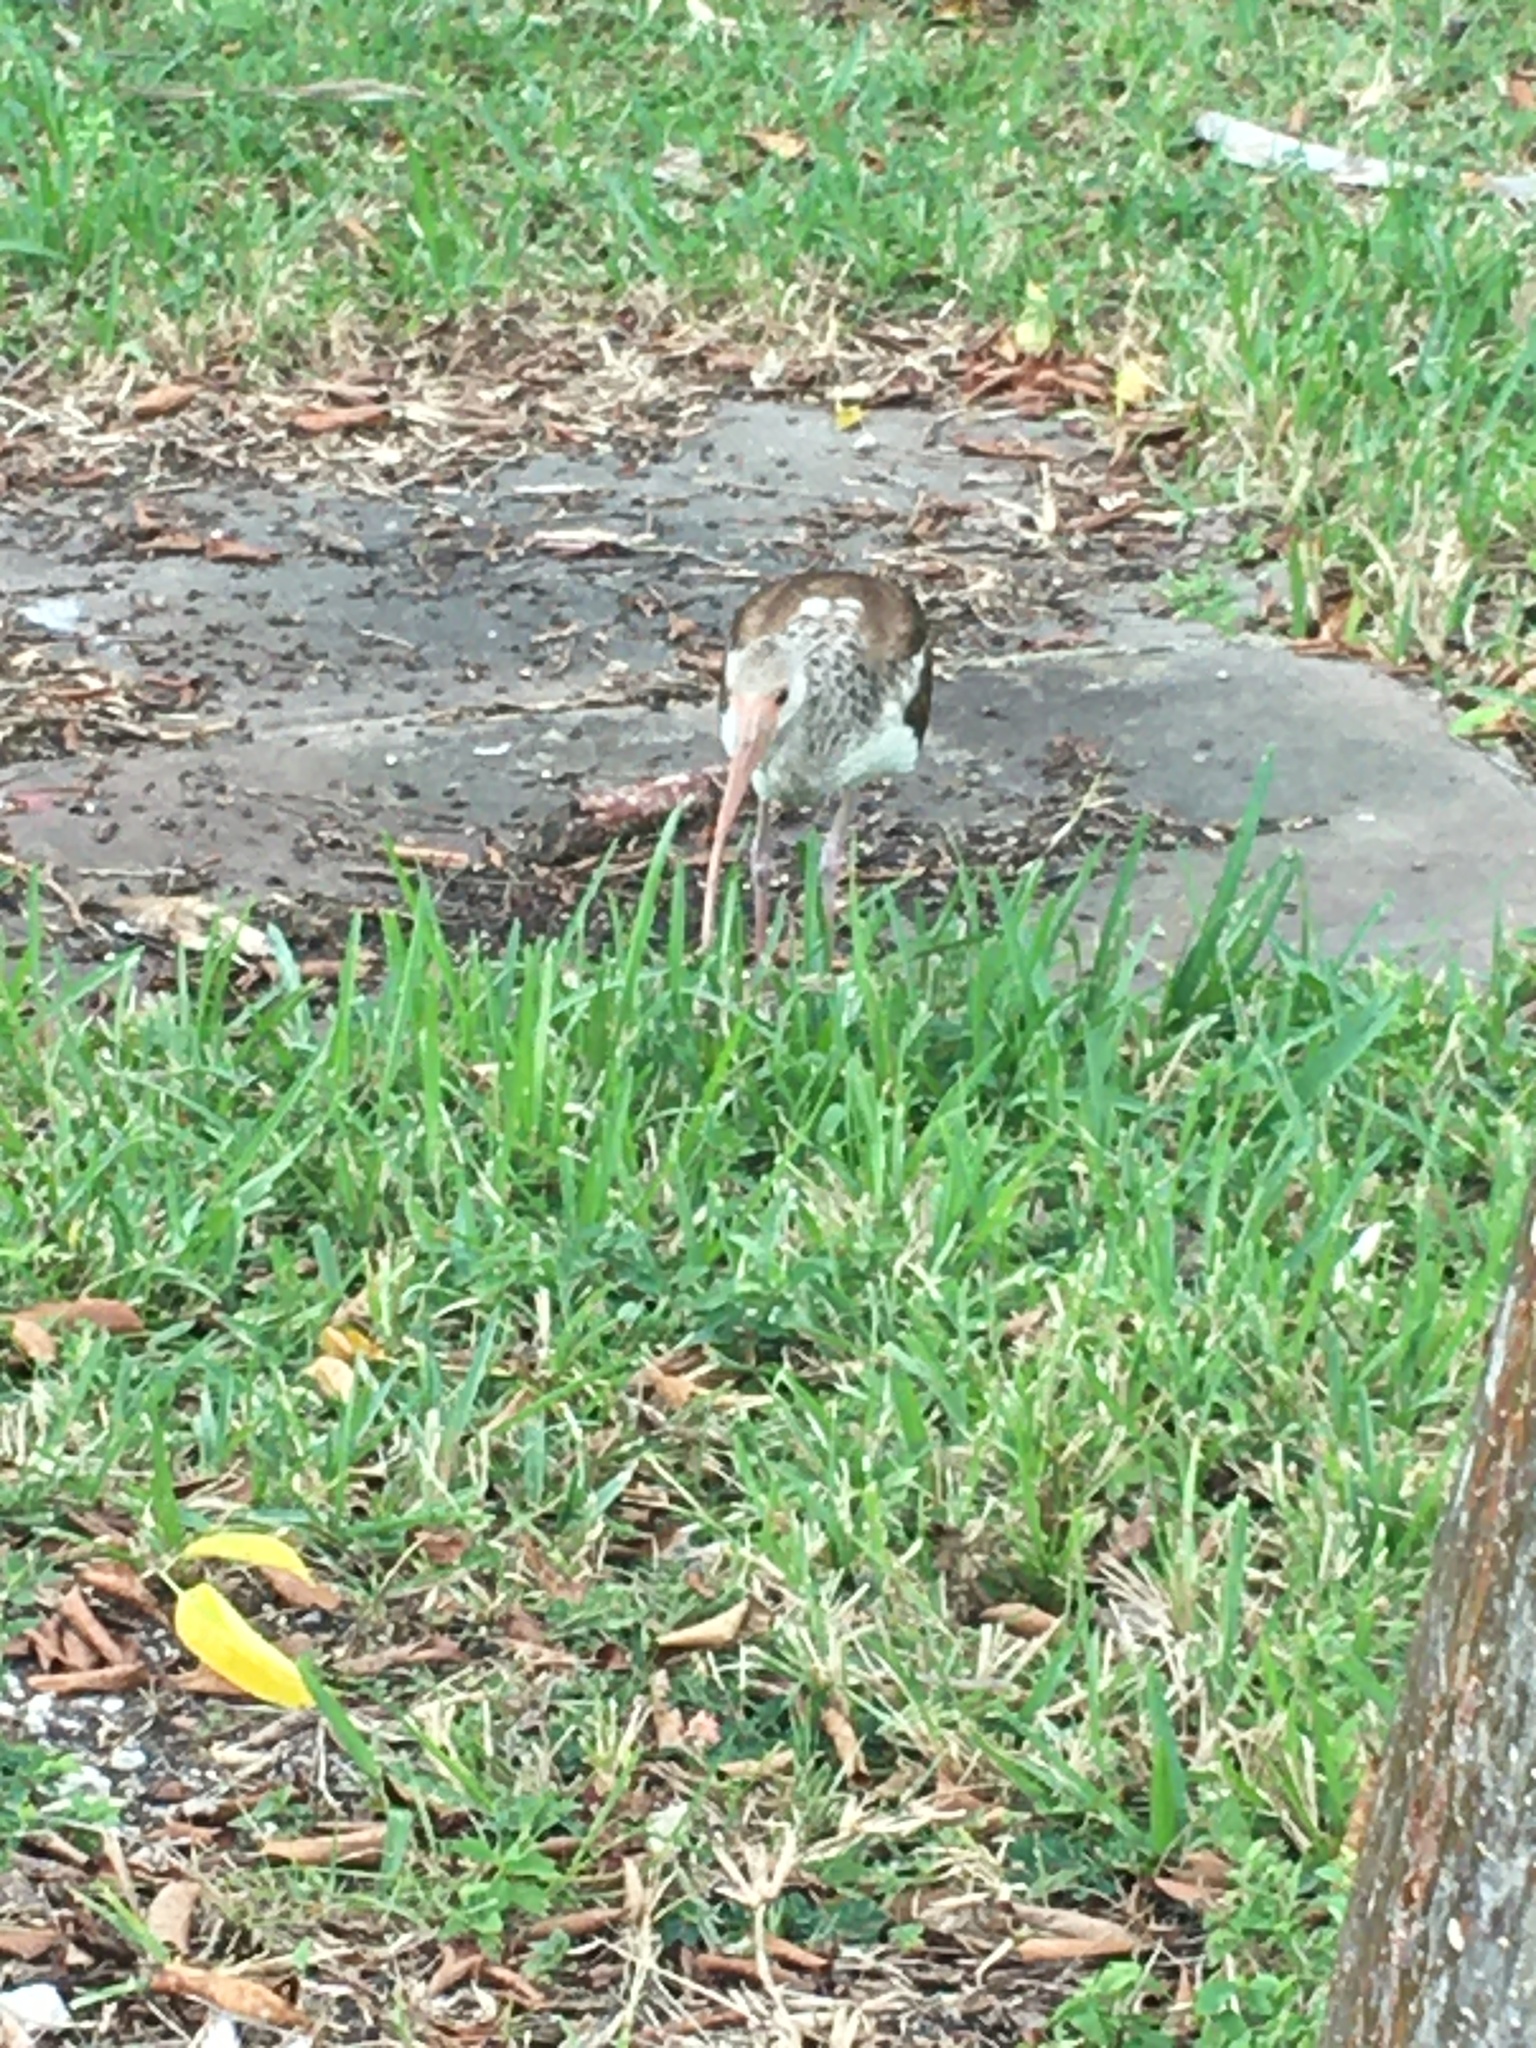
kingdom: Animalia
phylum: Chordata
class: Aves
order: Pelecaniformes
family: Threskiornithidae
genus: Eudocimus
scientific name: Eudocimus albus
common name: White ibis
